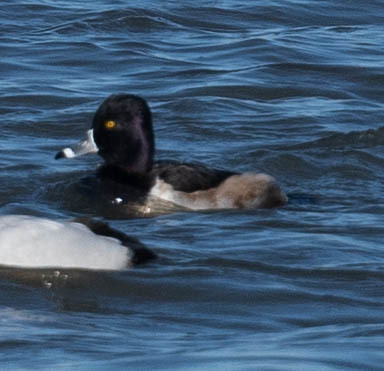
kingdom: Animalia
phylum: Chordata
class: Aves
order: Anseriformes
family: Anatidae
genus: Aythya
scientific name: Aythya collaris
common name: Ring-necked duck
